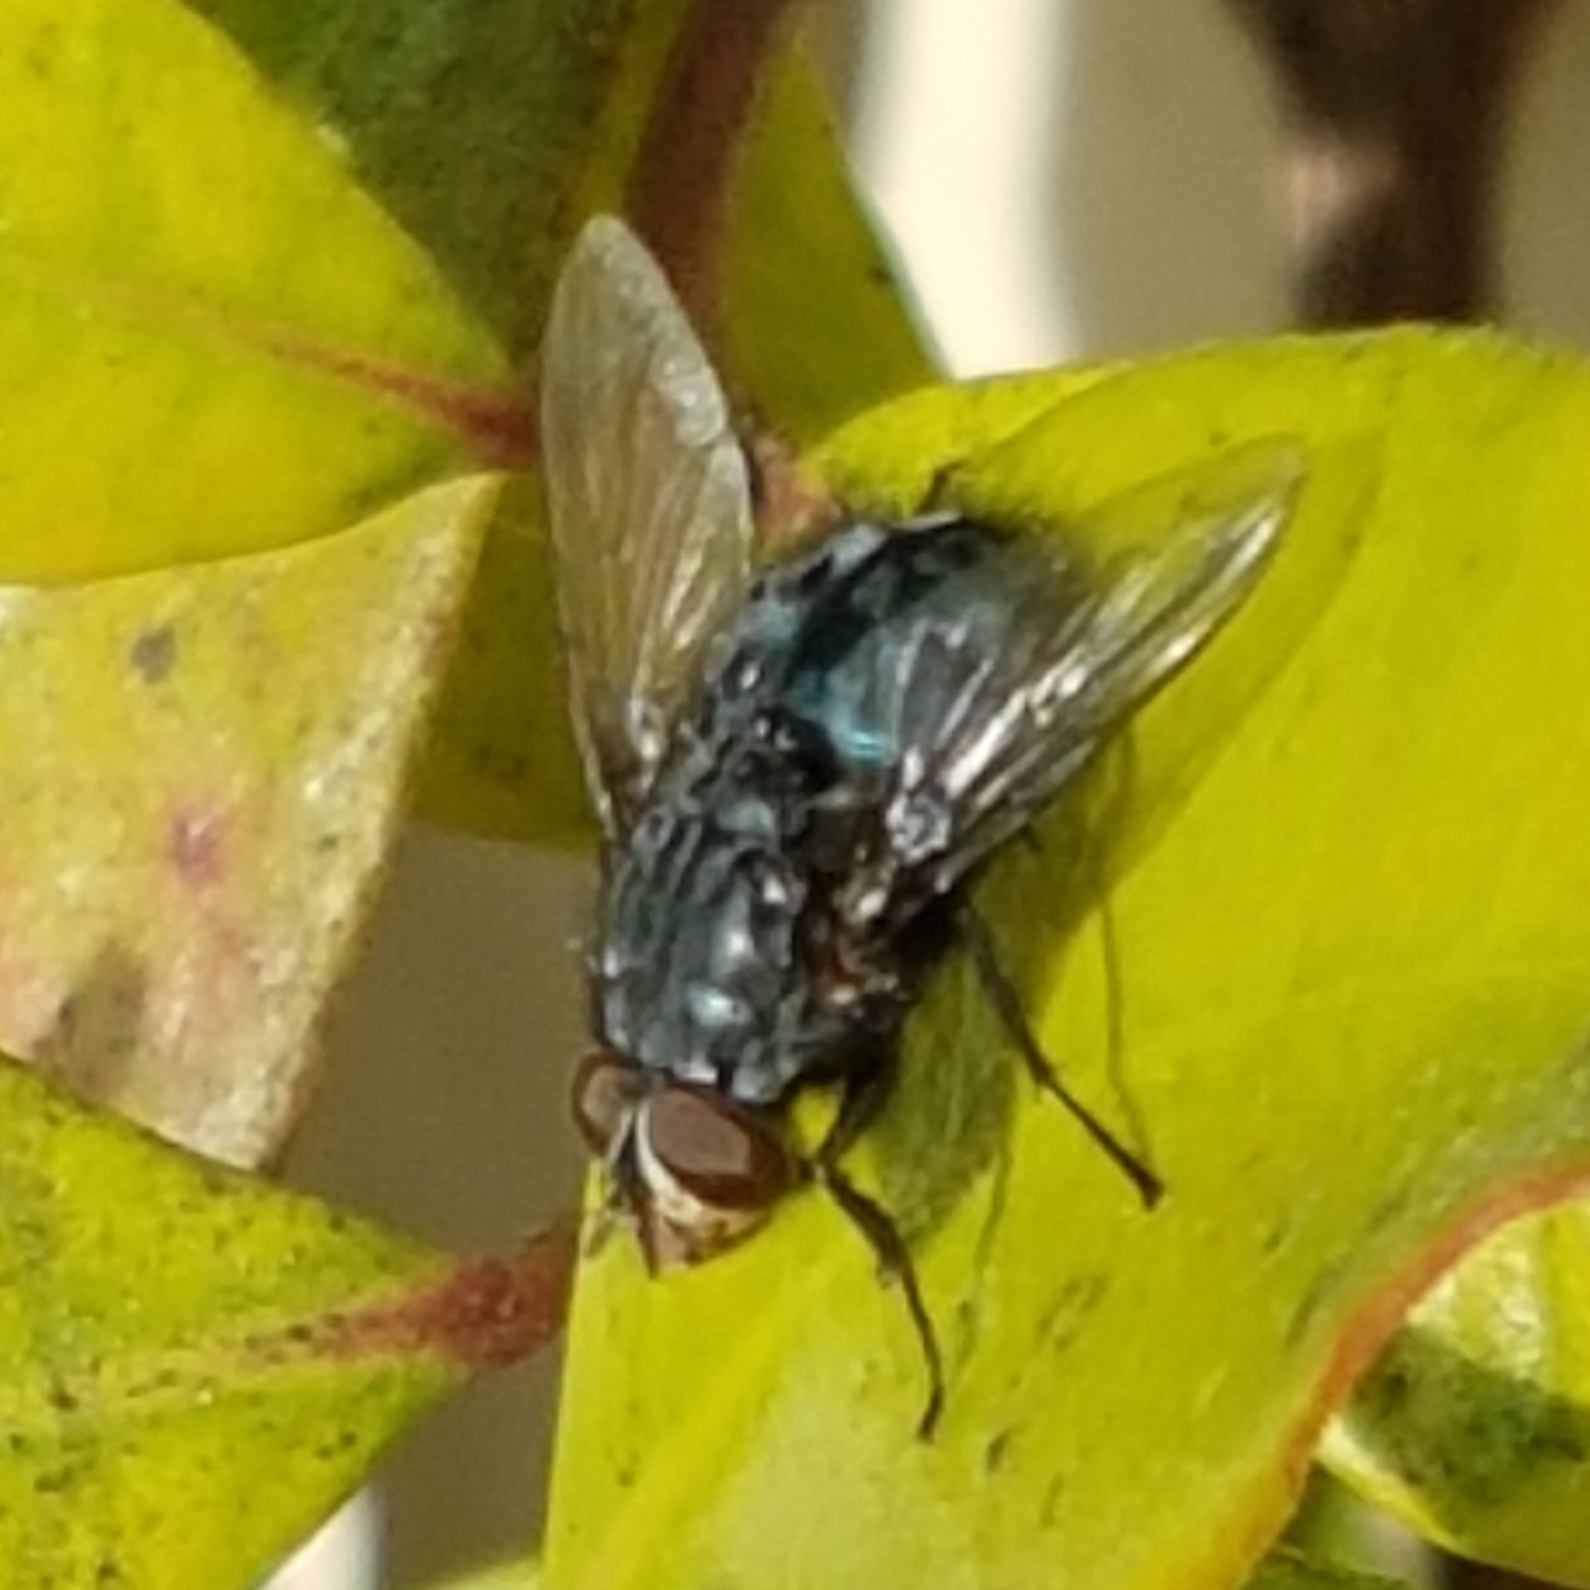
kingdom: Animalia
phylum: Arthropoda
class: Insecta
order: Diptera
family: Calliphoridae
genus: Calliphora
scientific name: Calliphora vicina
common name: Common blow flie
